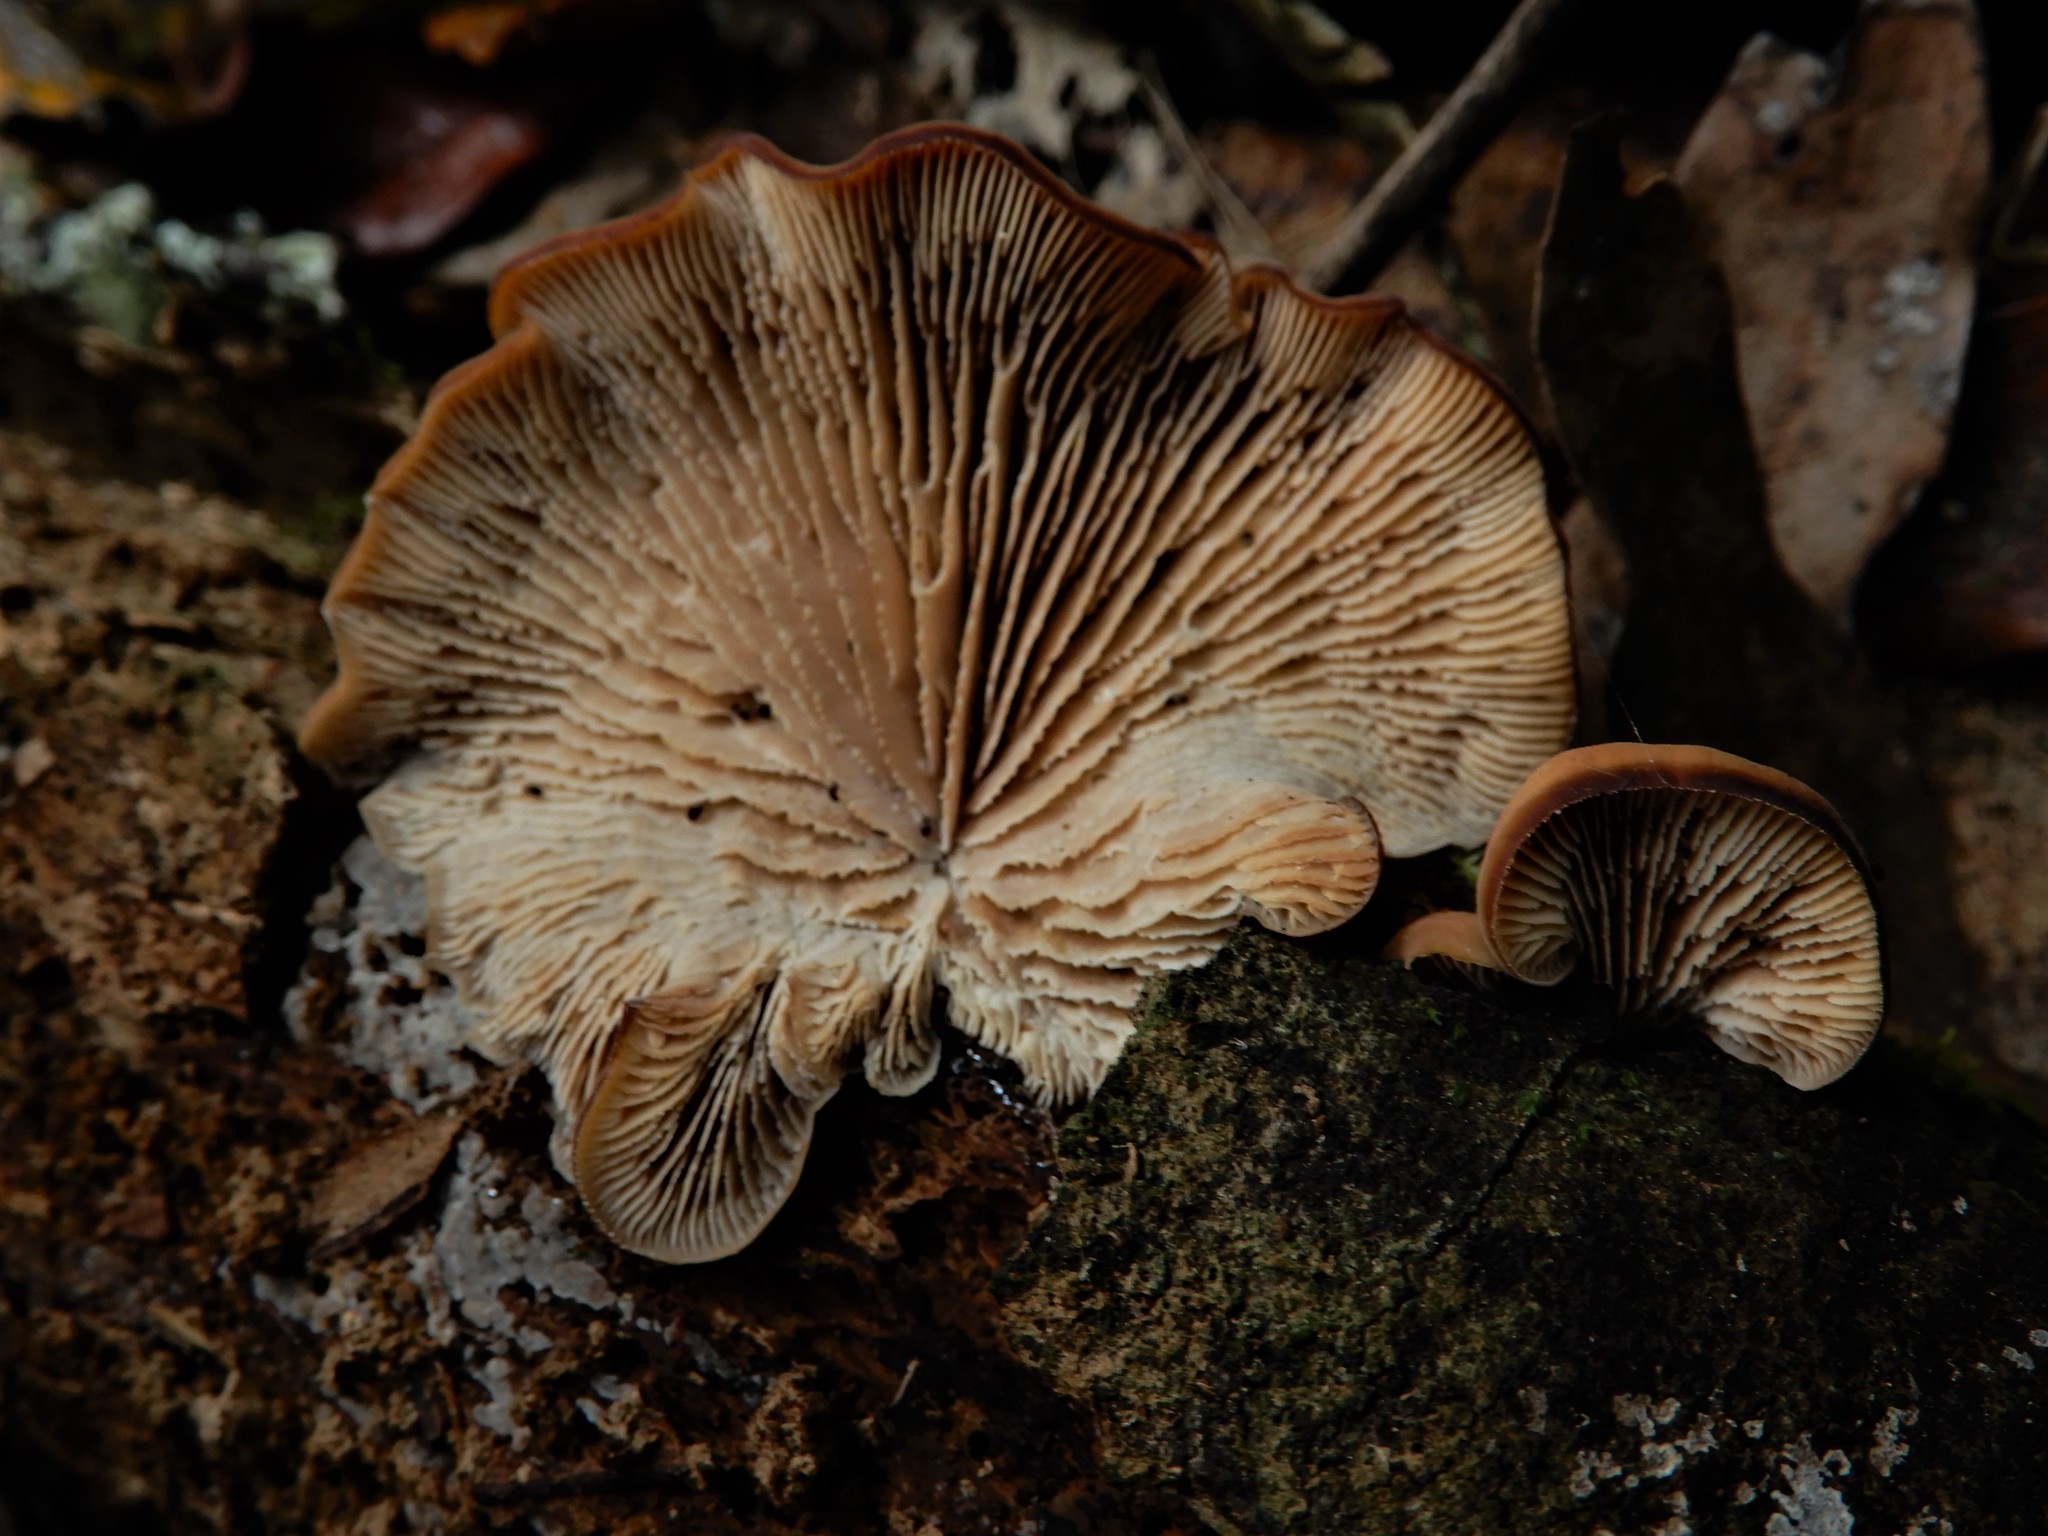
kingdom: Fungi
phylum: Basidiomycota
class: Agaricomycetes
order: Russulales
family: Auriscalpiaceae
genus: Lentinellus
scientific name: Lentinellus pulvinulus
